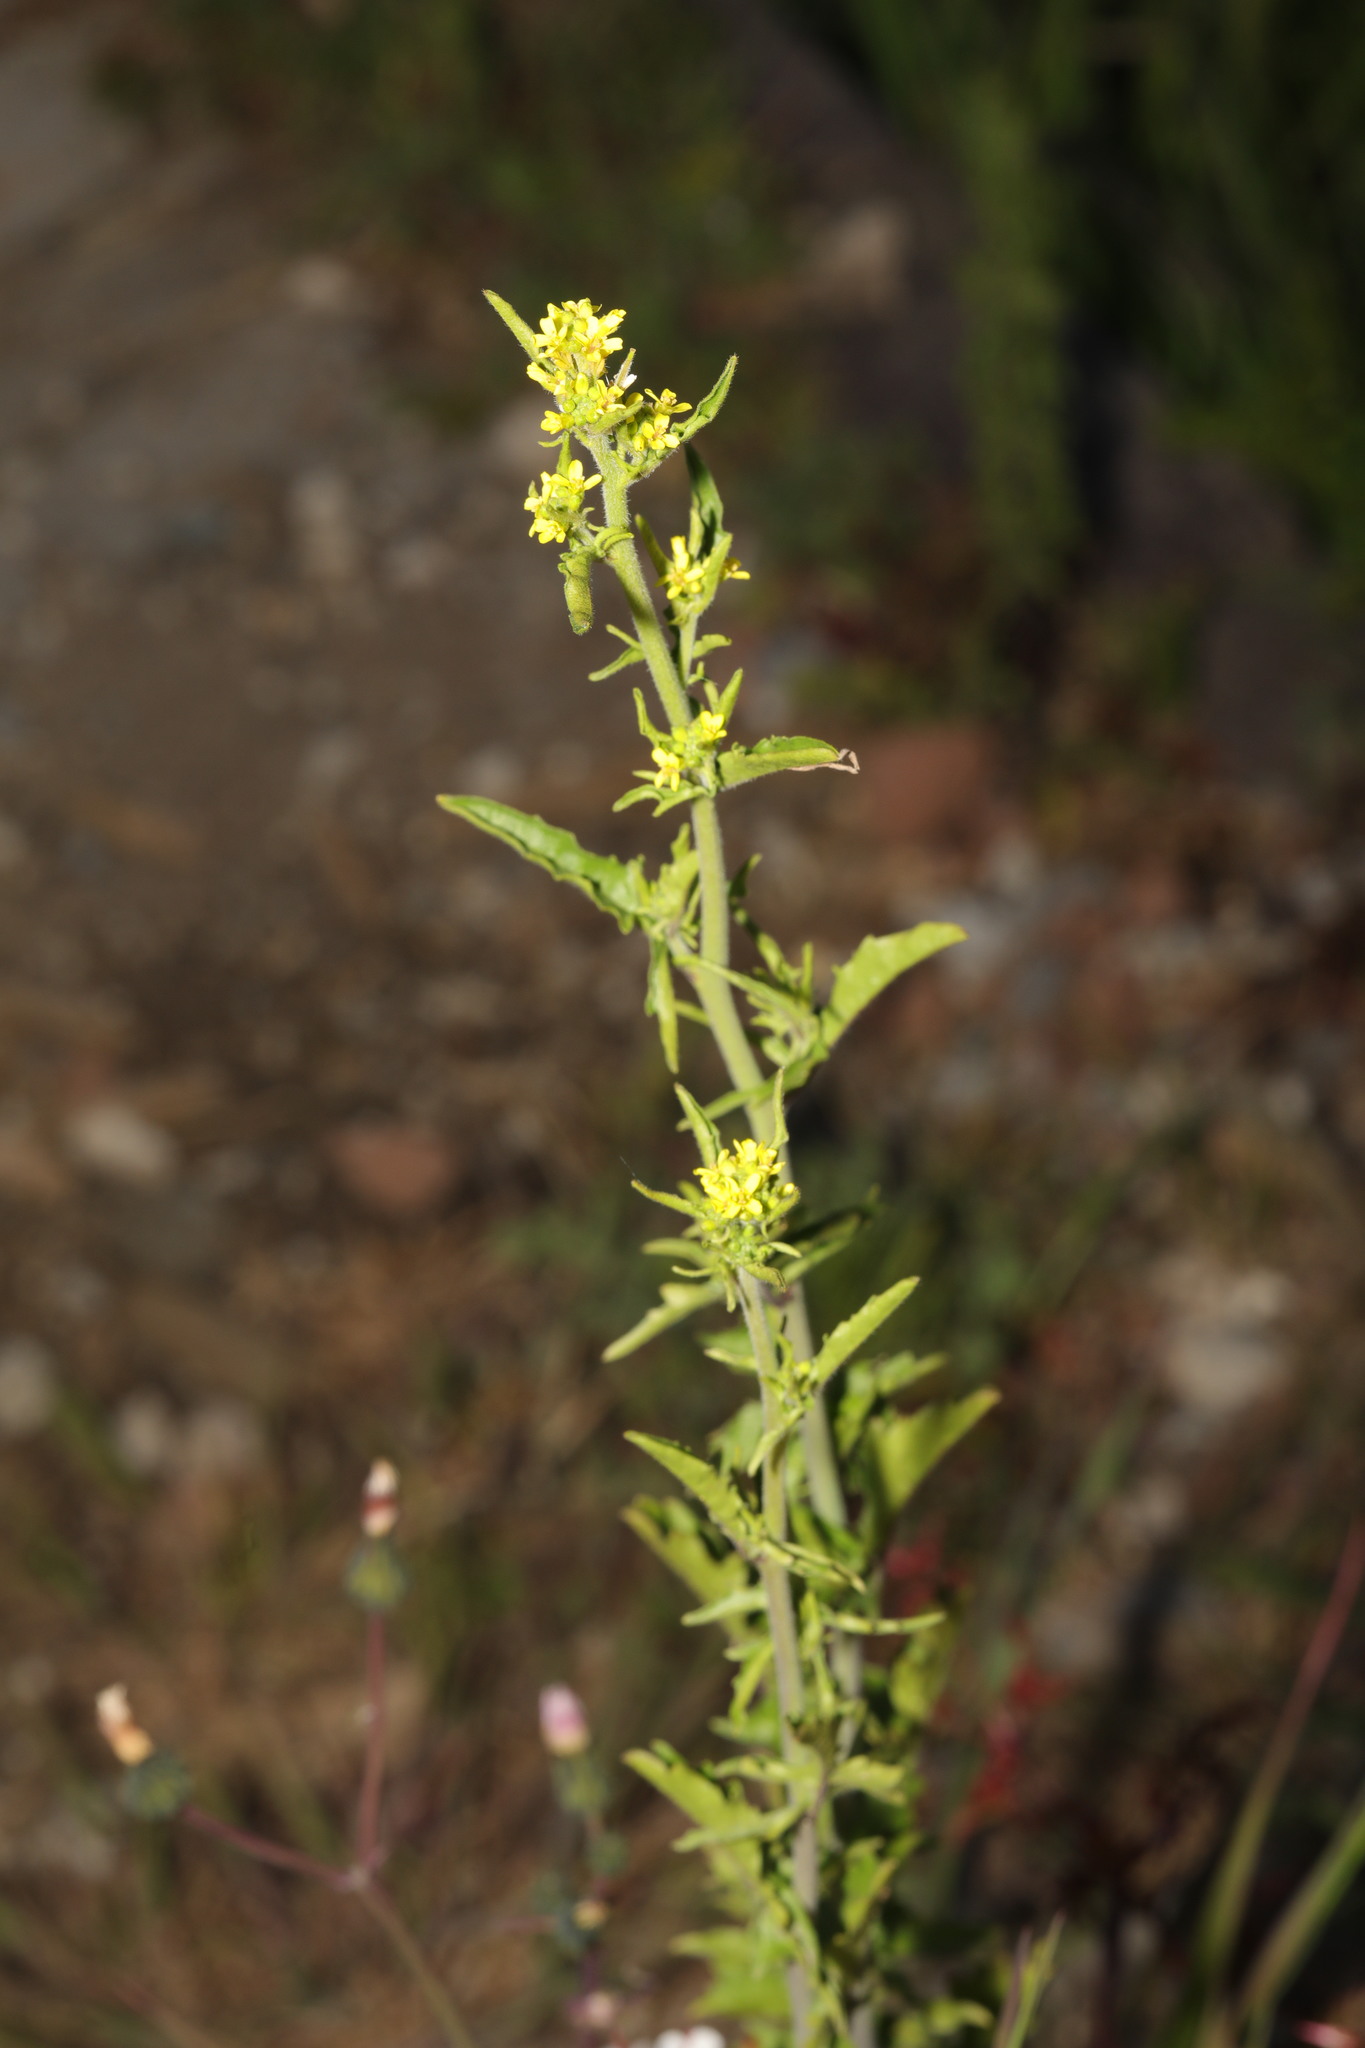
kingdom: Plantae
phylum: Tracheophyta
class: Magnoliopsida
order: Brassicales
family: Brassicaceae
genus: Sisymbrium
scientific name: Sisymbrium officinale
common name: Hedge mustard
